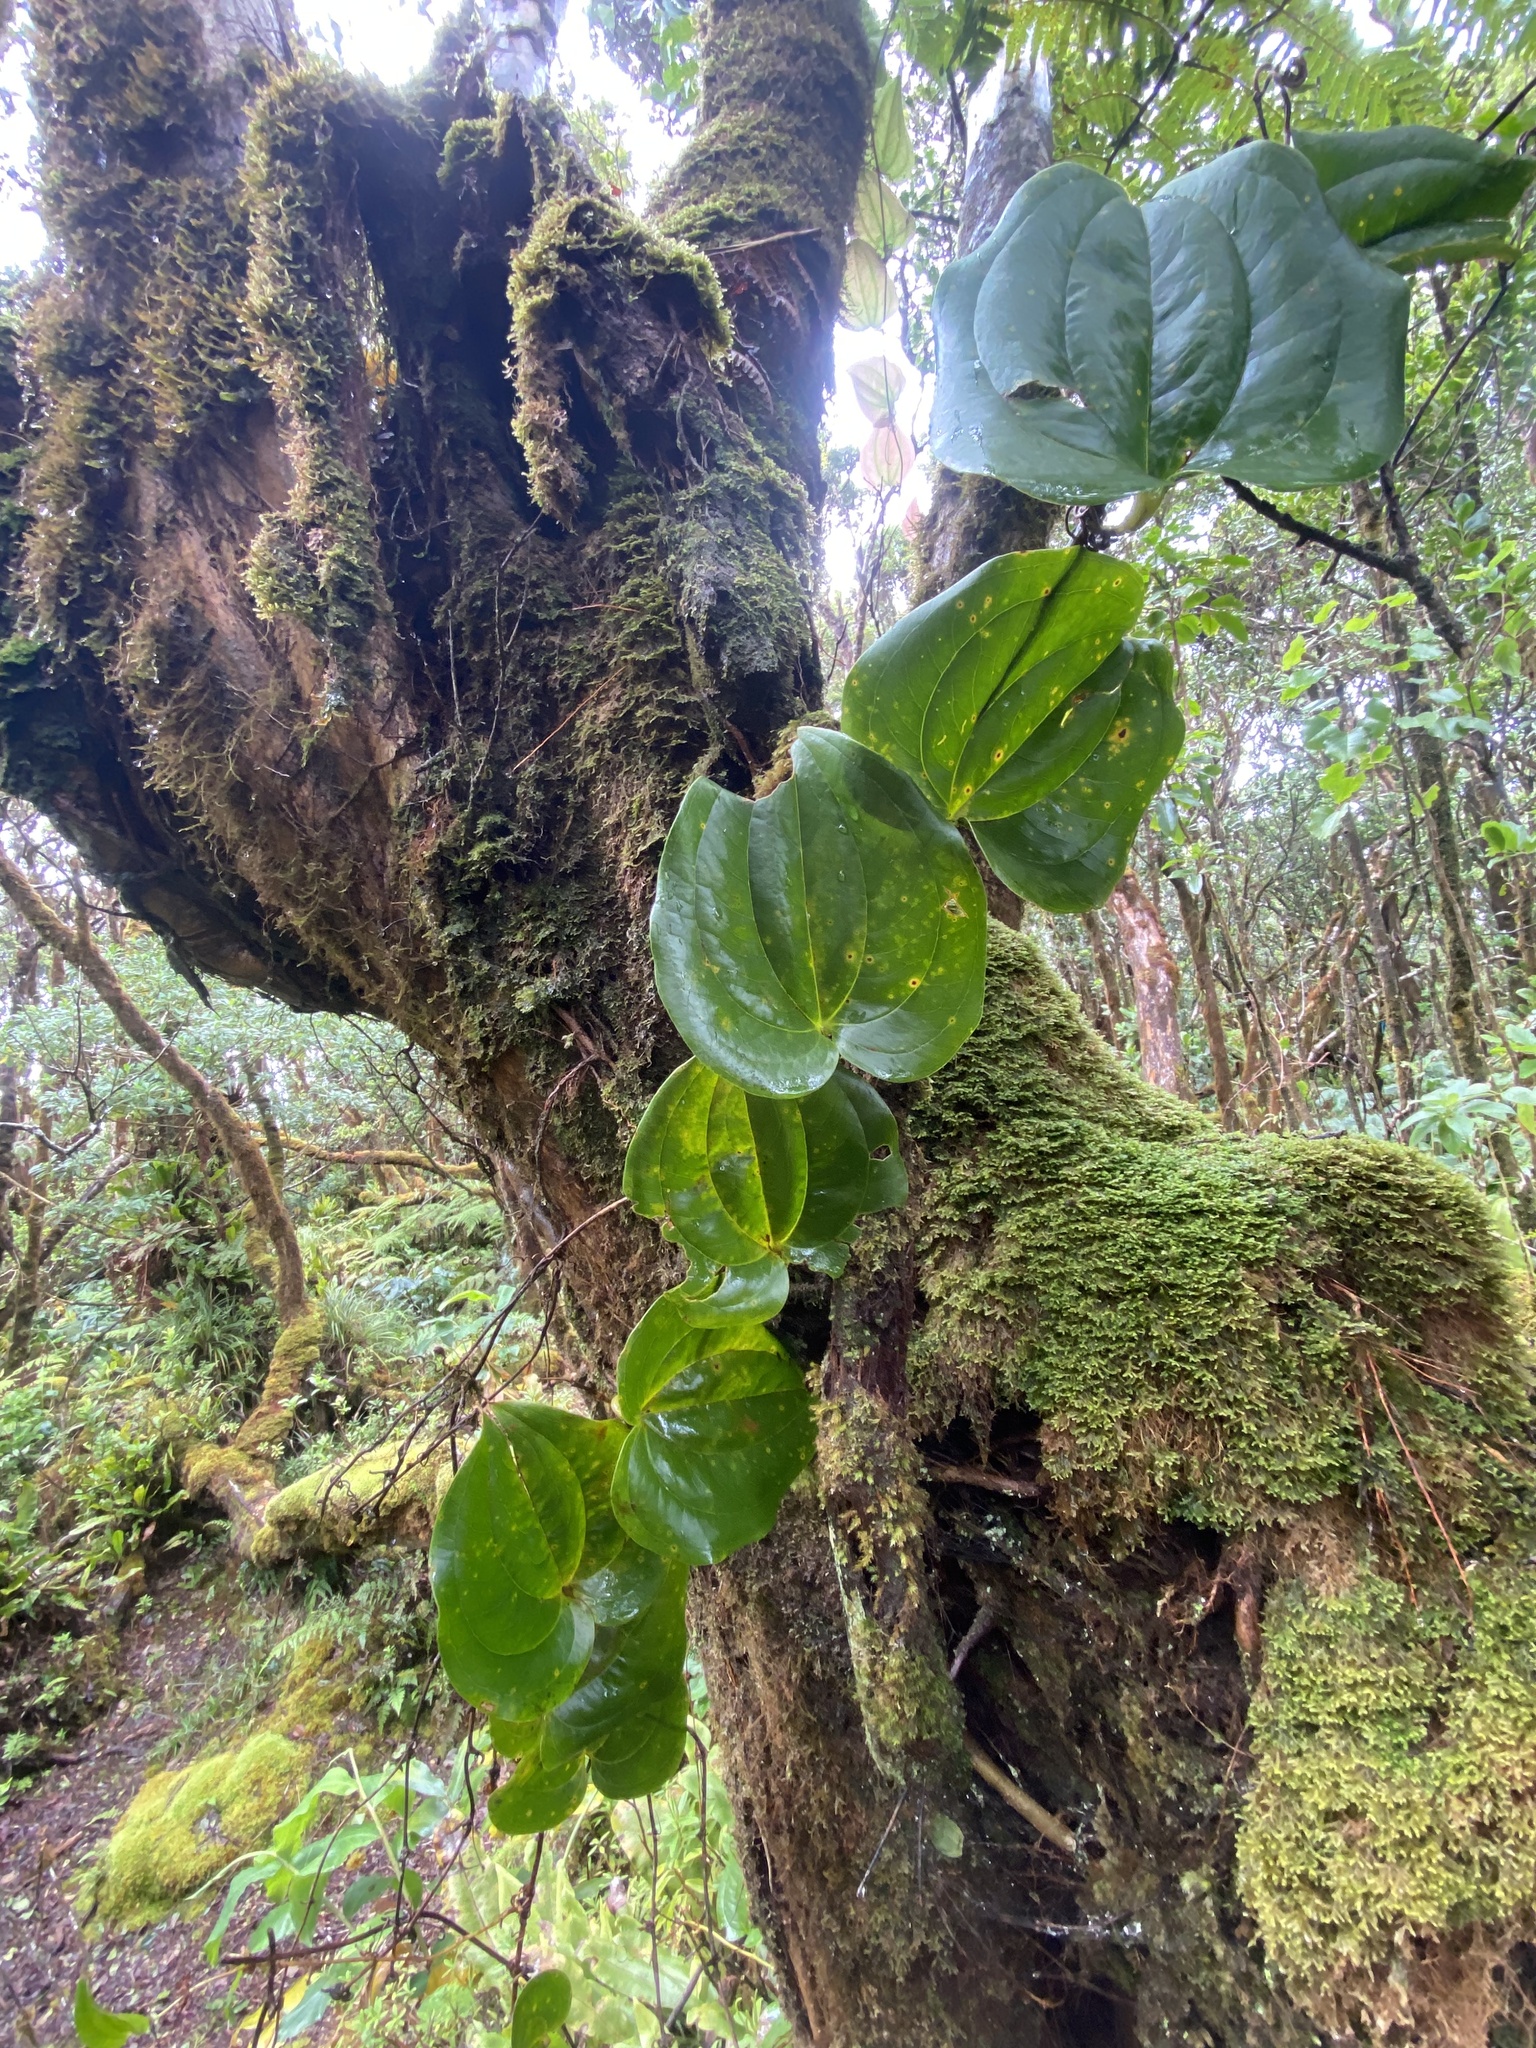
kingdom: Plantae
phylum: Tracheophyta
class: Liliopsida
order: Liliales
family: Smilacaceae
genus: Smilax
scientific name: Smilax melastomifolia
